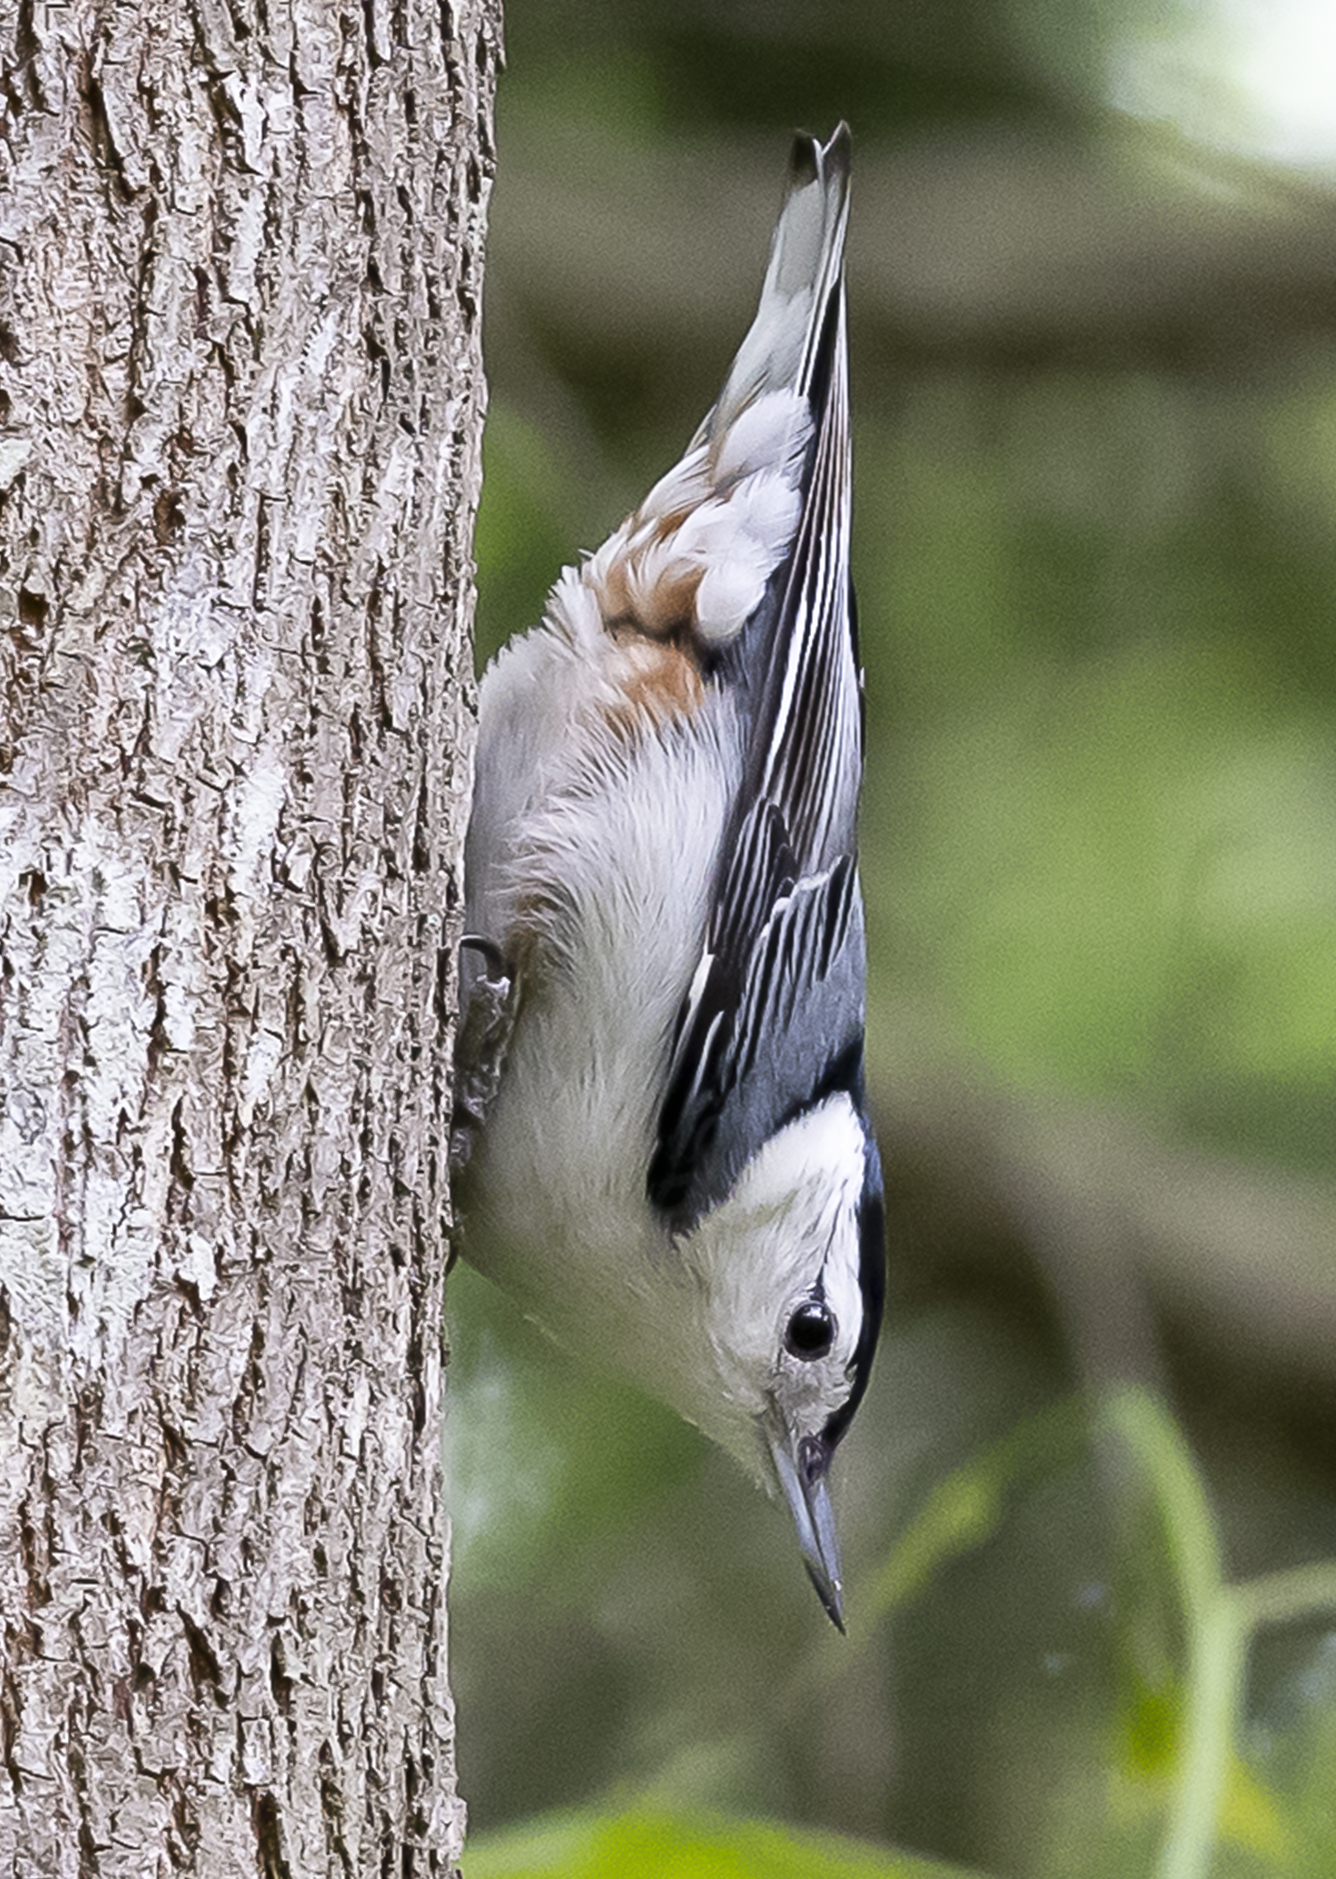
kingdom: Animalia
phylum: Chordata
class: Aves
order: Passeriformes
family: Sittidae
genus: Sitta
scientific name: Sitta carolinensis
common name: White-breasted nuthatch
